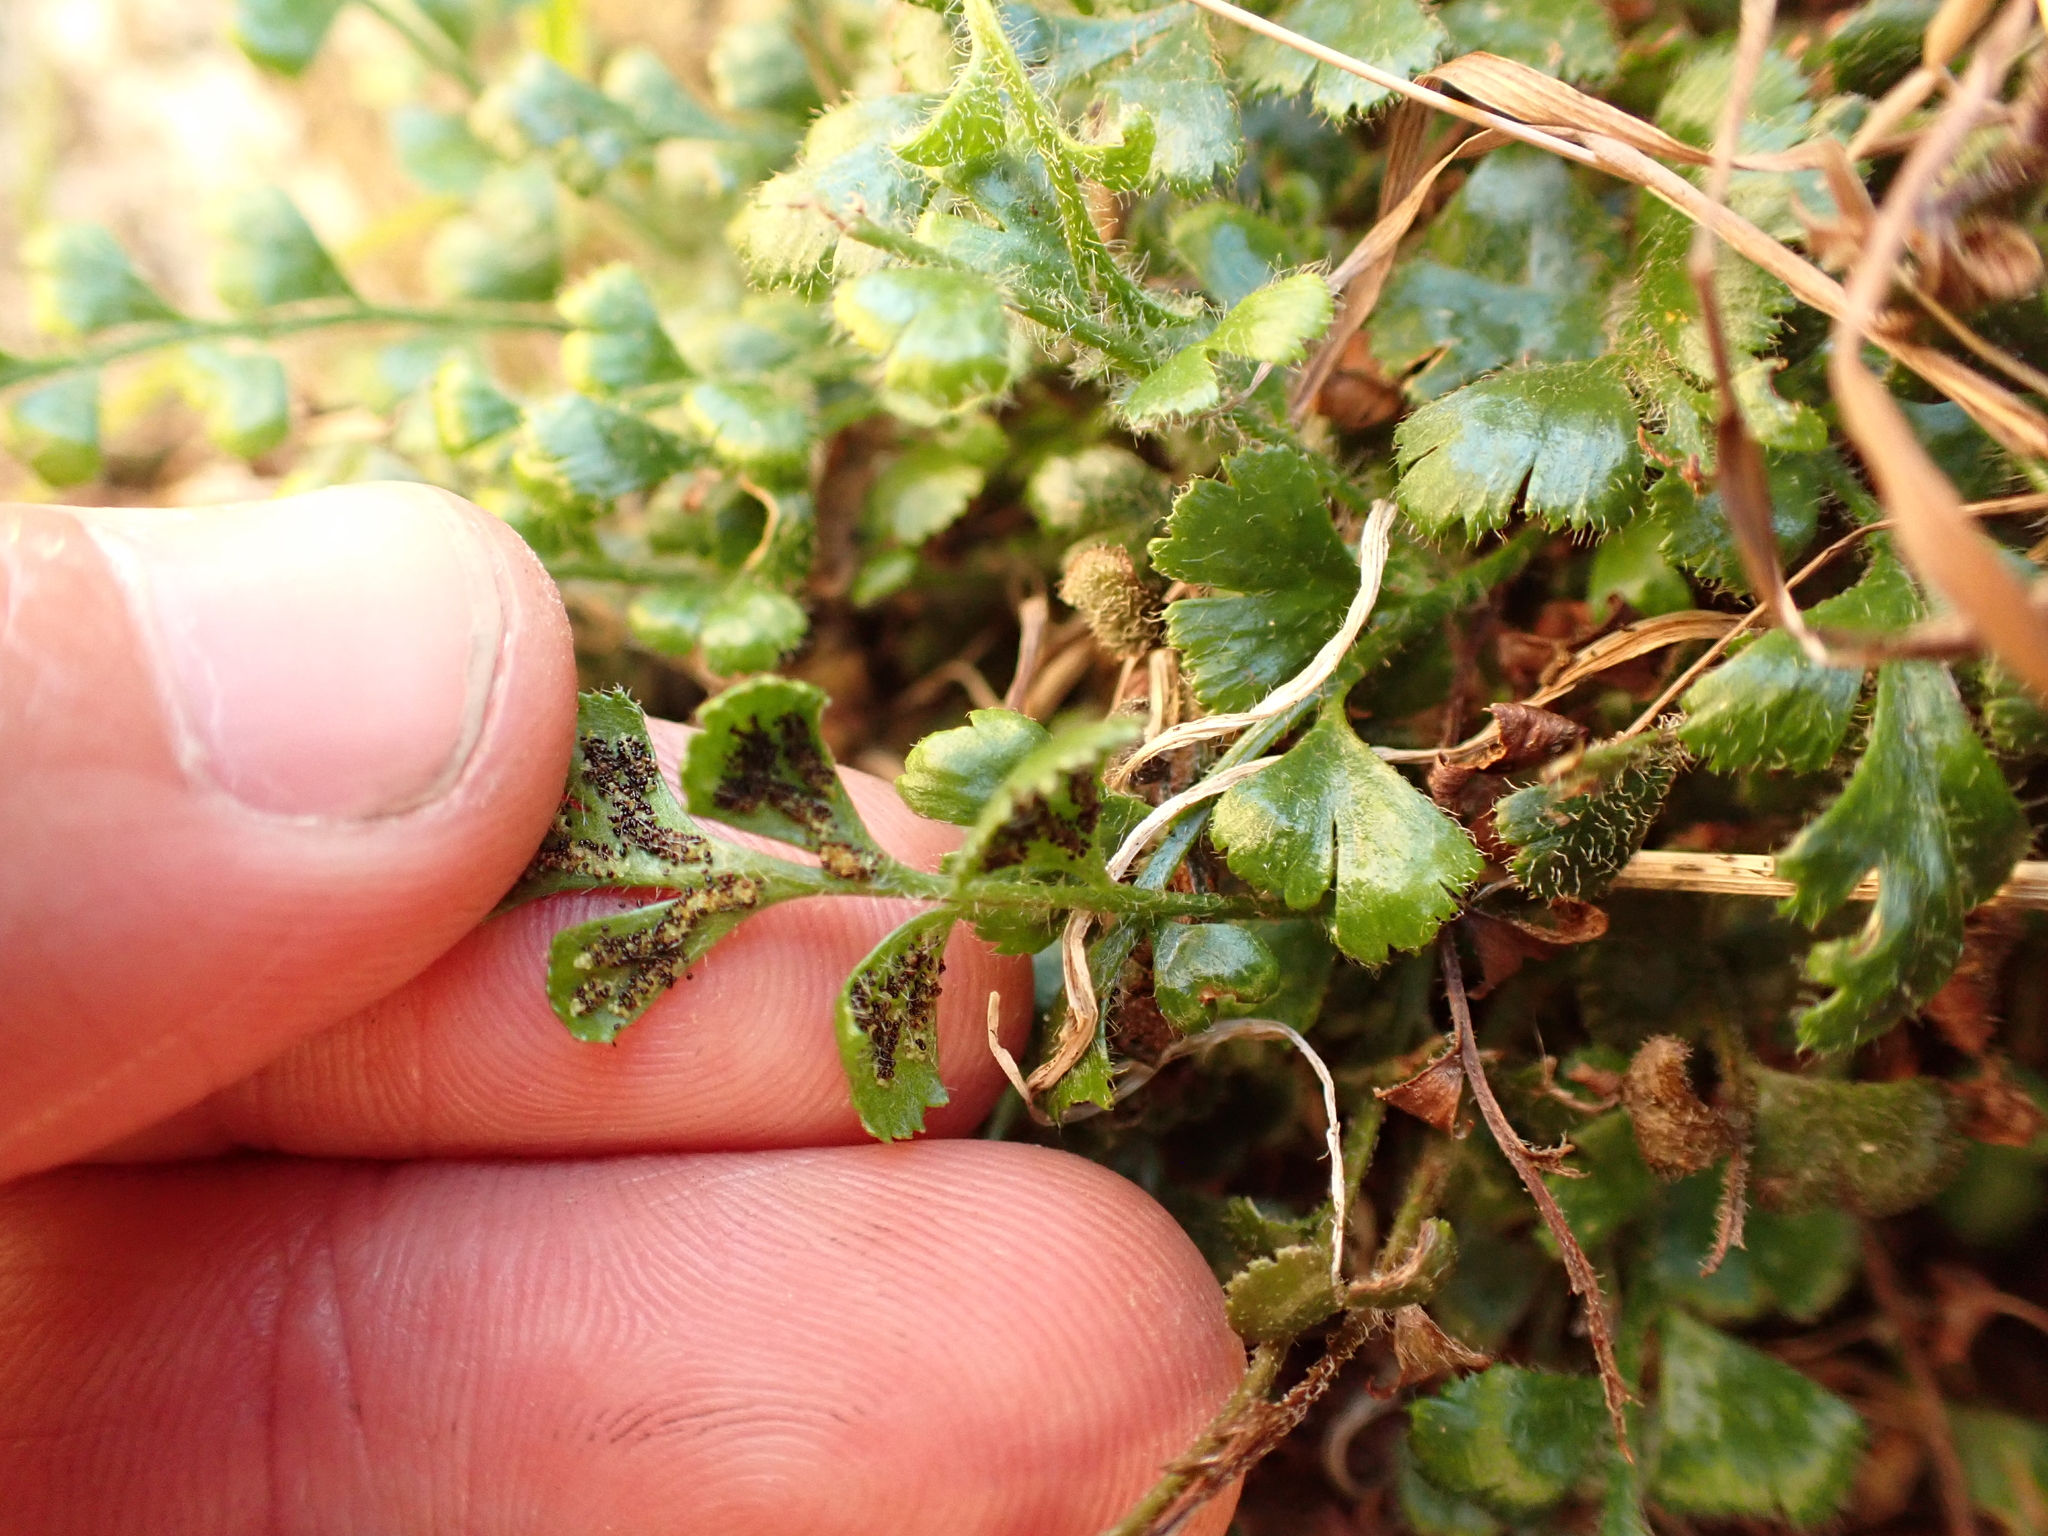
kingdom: Plantae
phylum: Tracheophyta
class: Polypodiopsida
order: Polypodiales
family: Aspleniaceae
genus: Asplenium
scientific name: Asplenium subglandulosum
